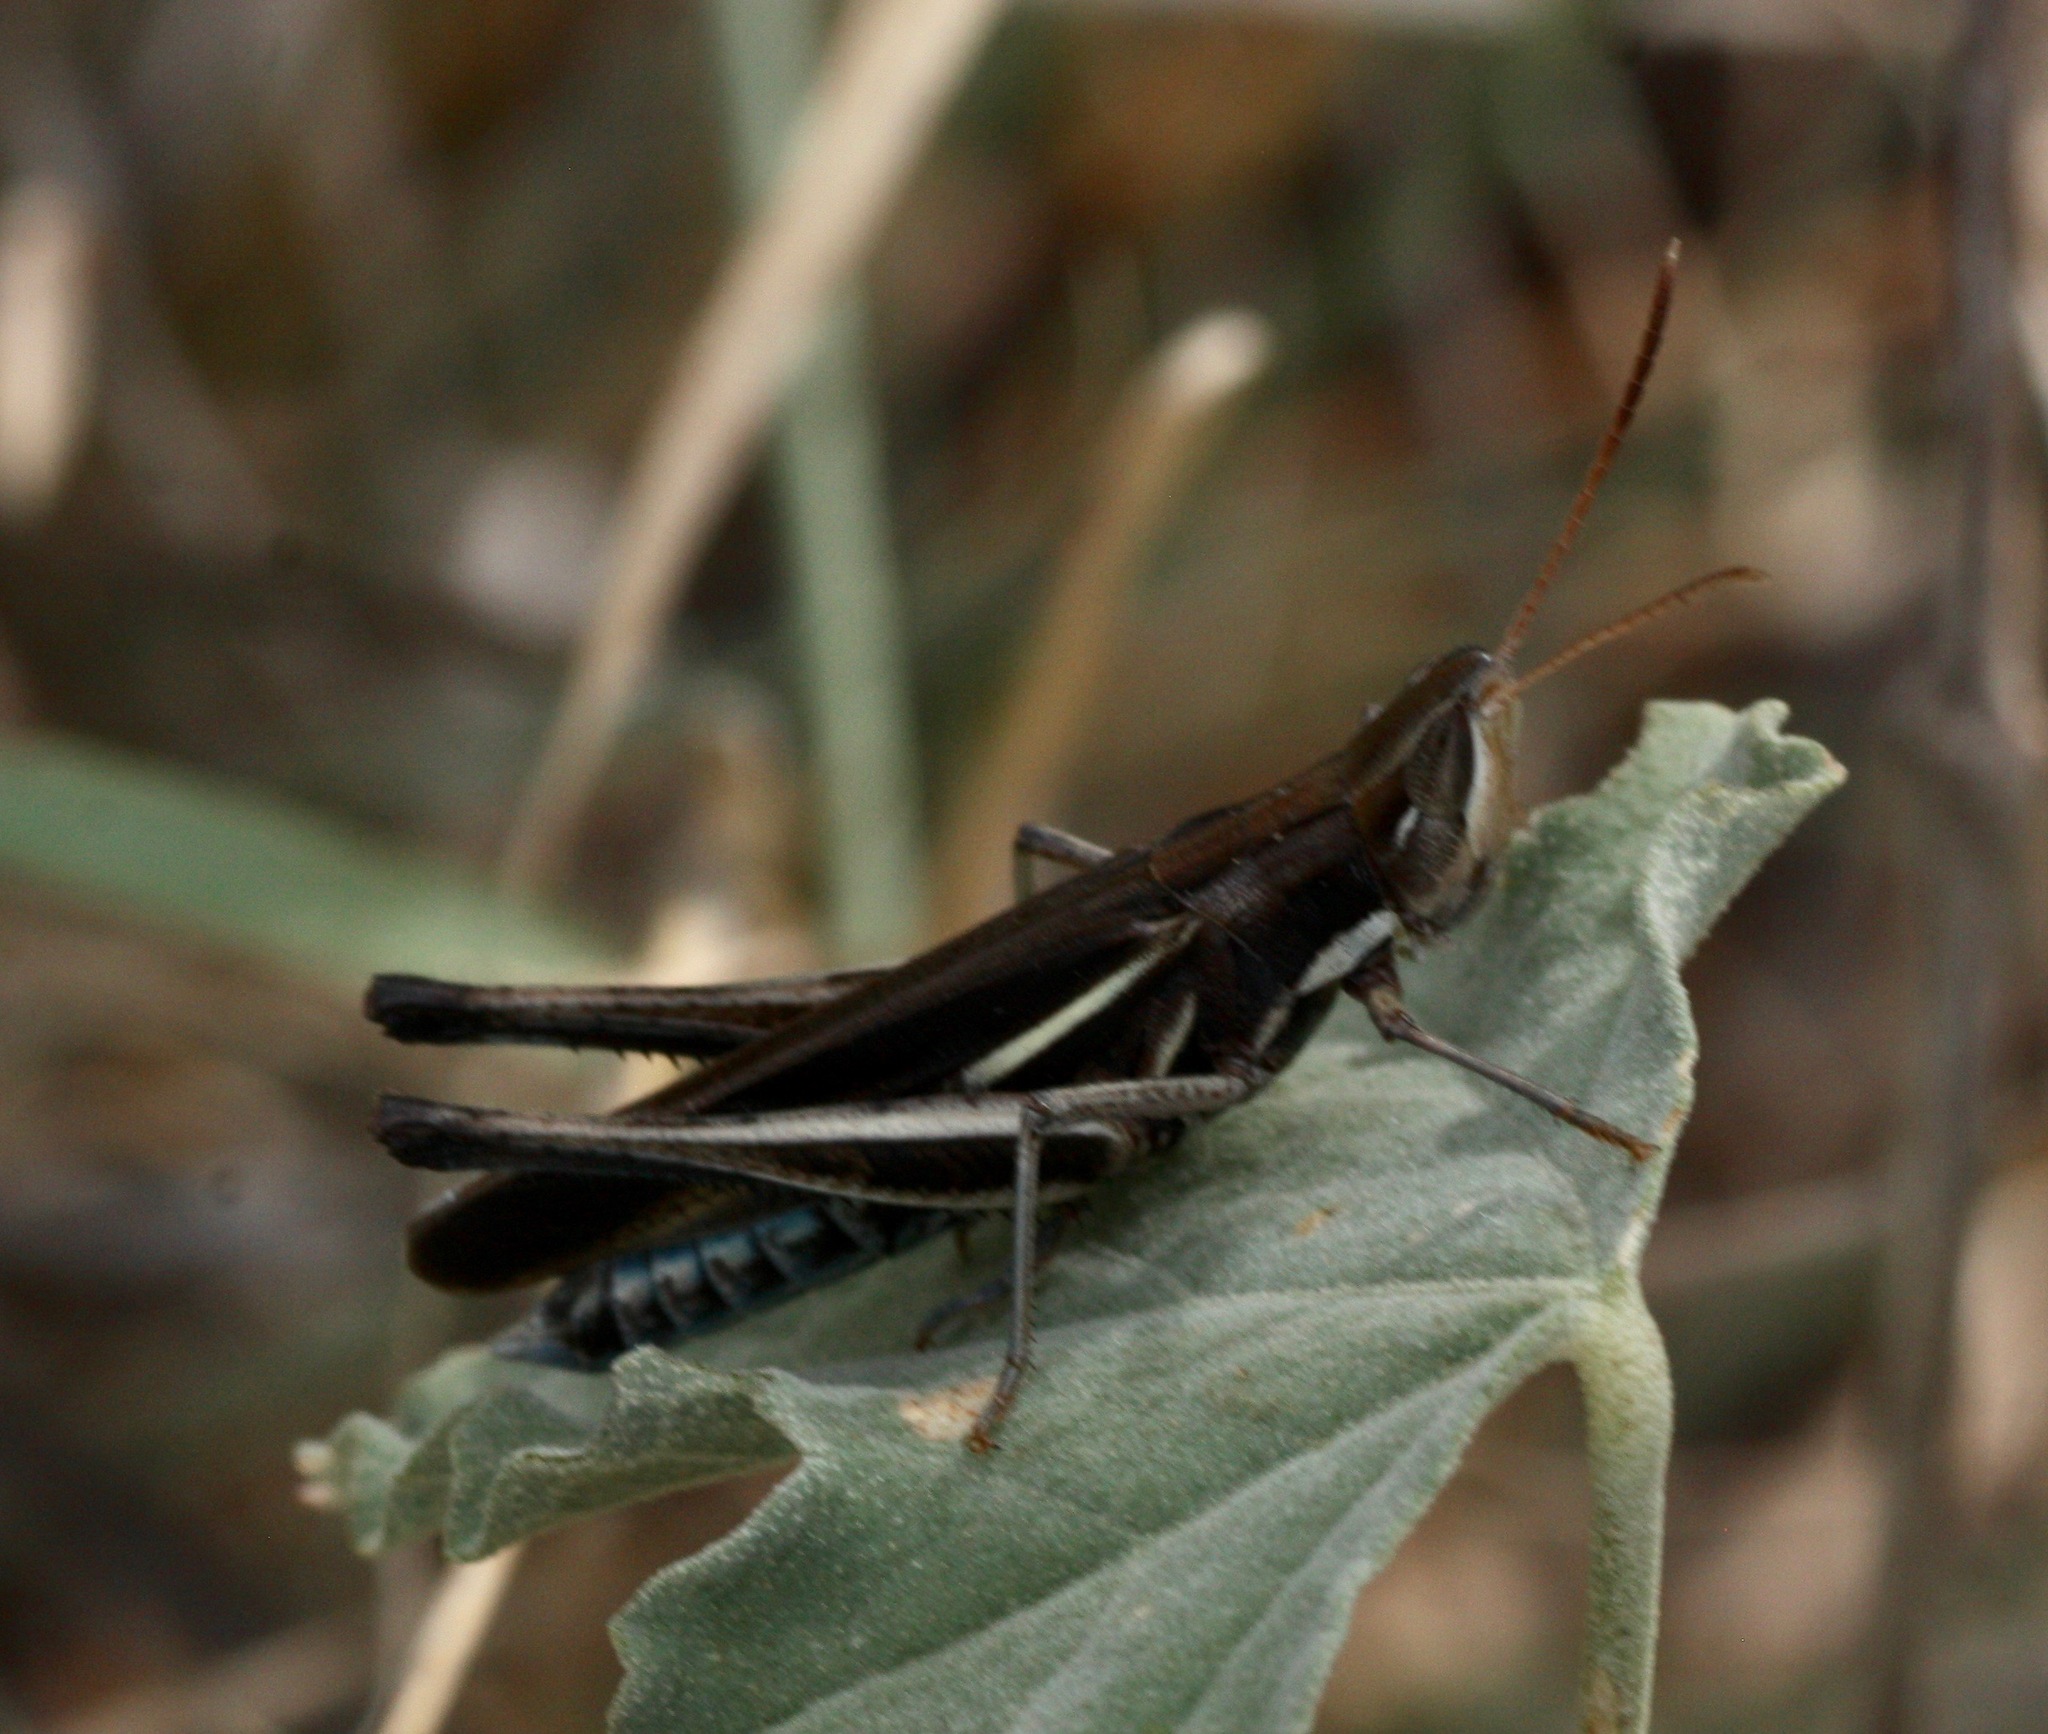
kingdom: Animalia
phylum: Arthropoda
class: Insecta
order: Orthoptera
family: Acrididae
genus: Syrbula
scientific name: Syrbula montezuma
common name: Montezuma's grasshopper
